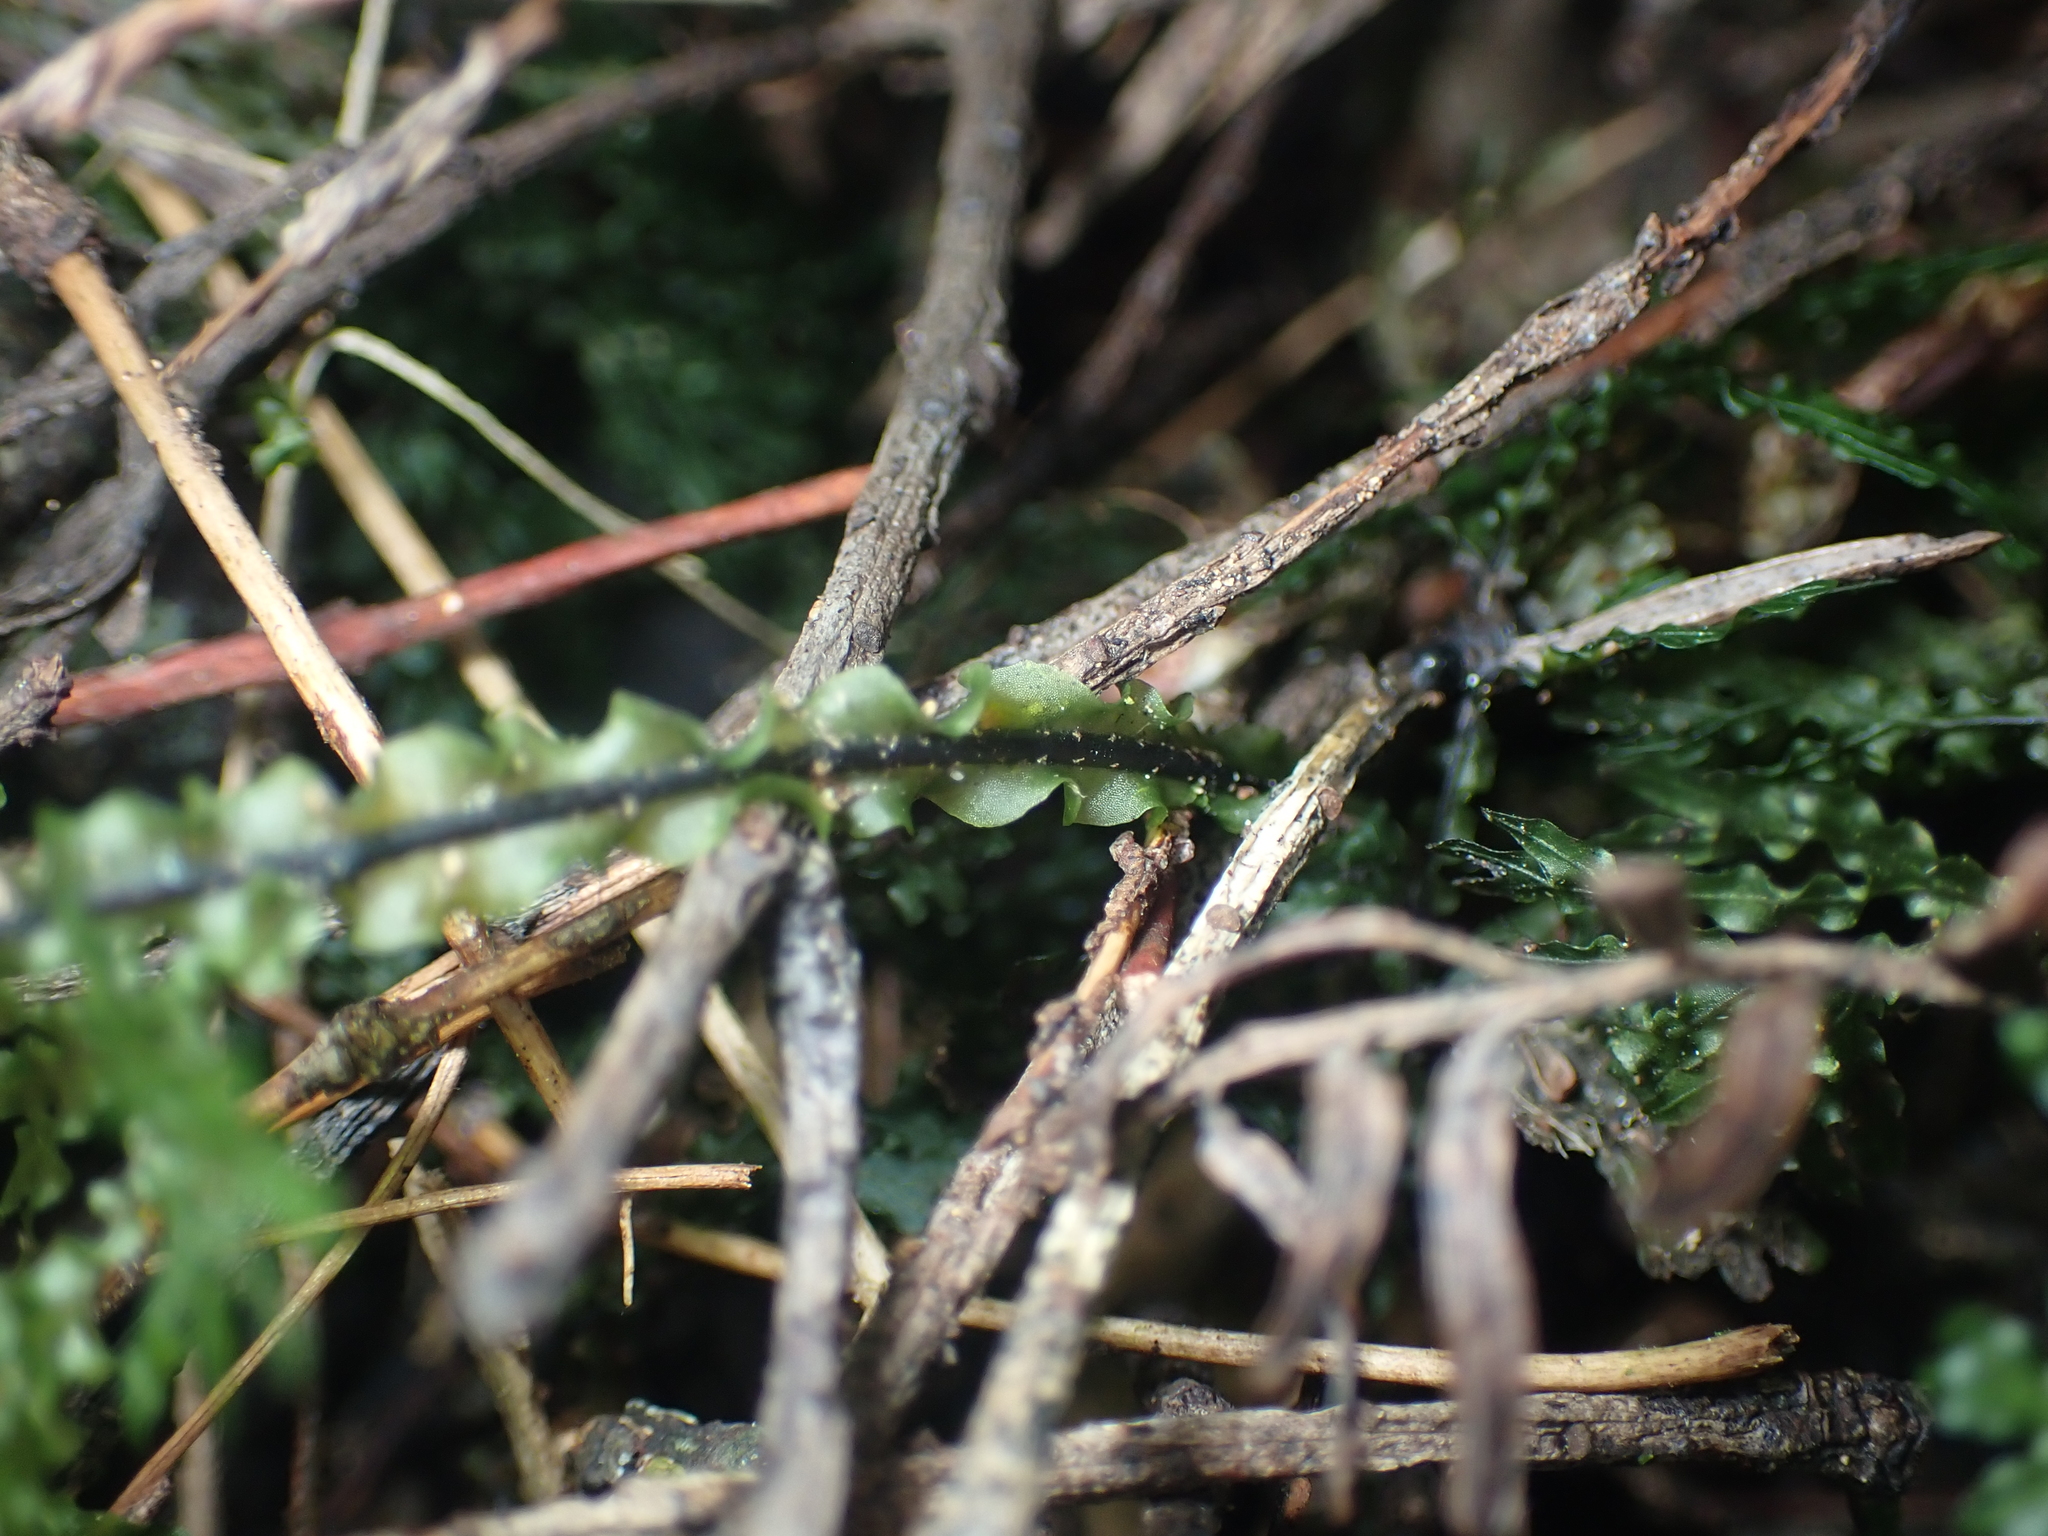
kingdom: Plantae
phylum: Tracheophyta
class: Polypodiopsida
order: Hymenophyllales
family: Hymenophyllaceae
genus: Hymenophyllum
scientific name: Hymenophyllum flexuosum
